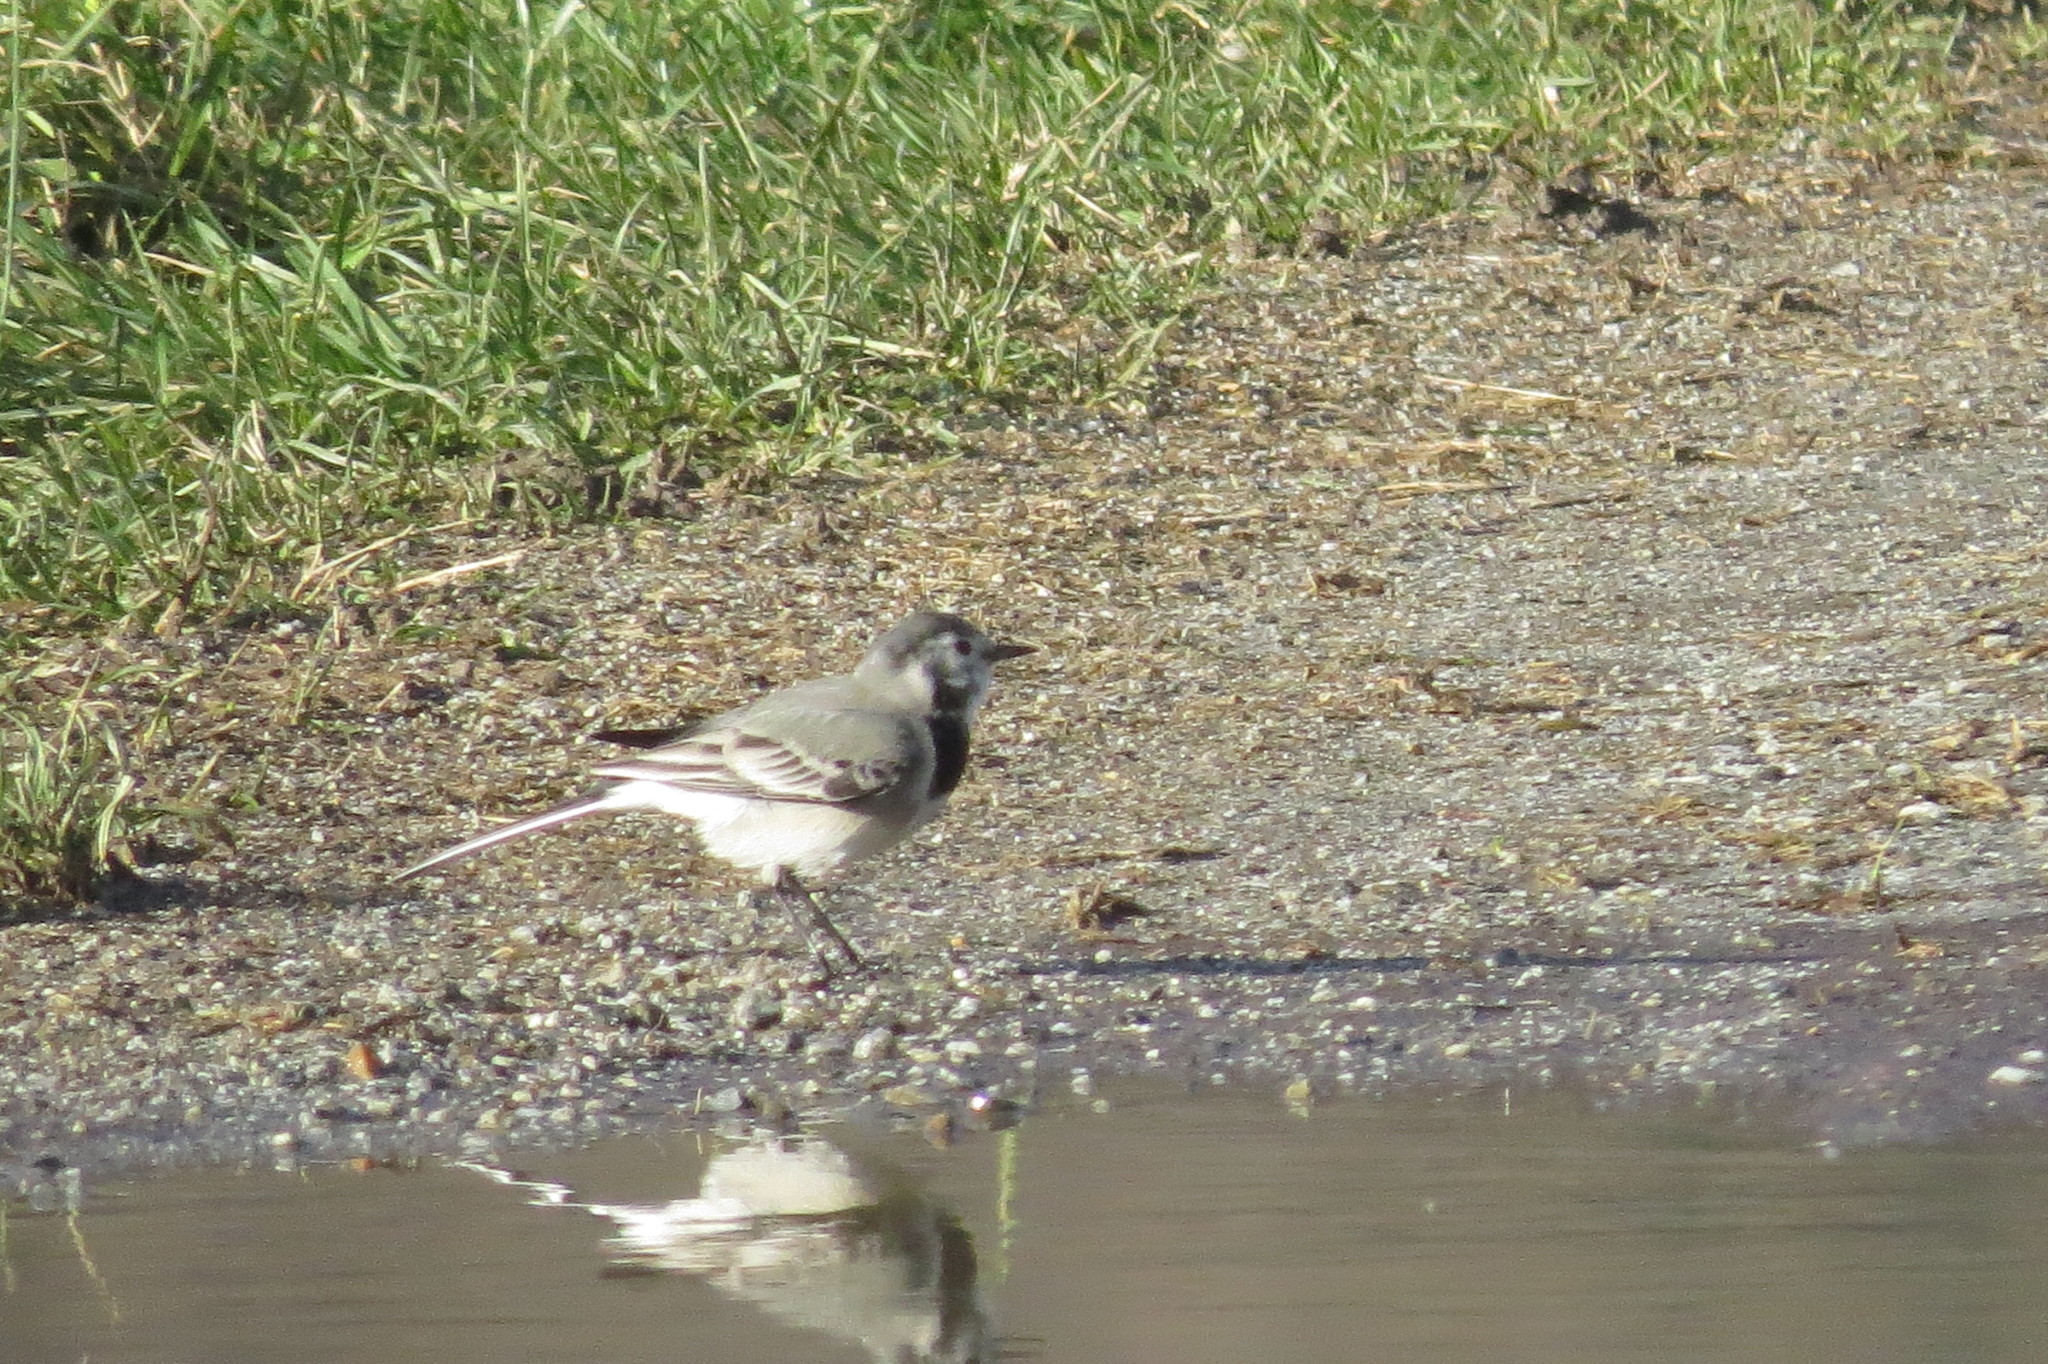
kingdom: Animalia
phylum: Chordata
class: Aves
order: Passeriformes
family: Motacillidae
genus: Motacilla
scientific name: Motacilla alba
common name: White wagtail
